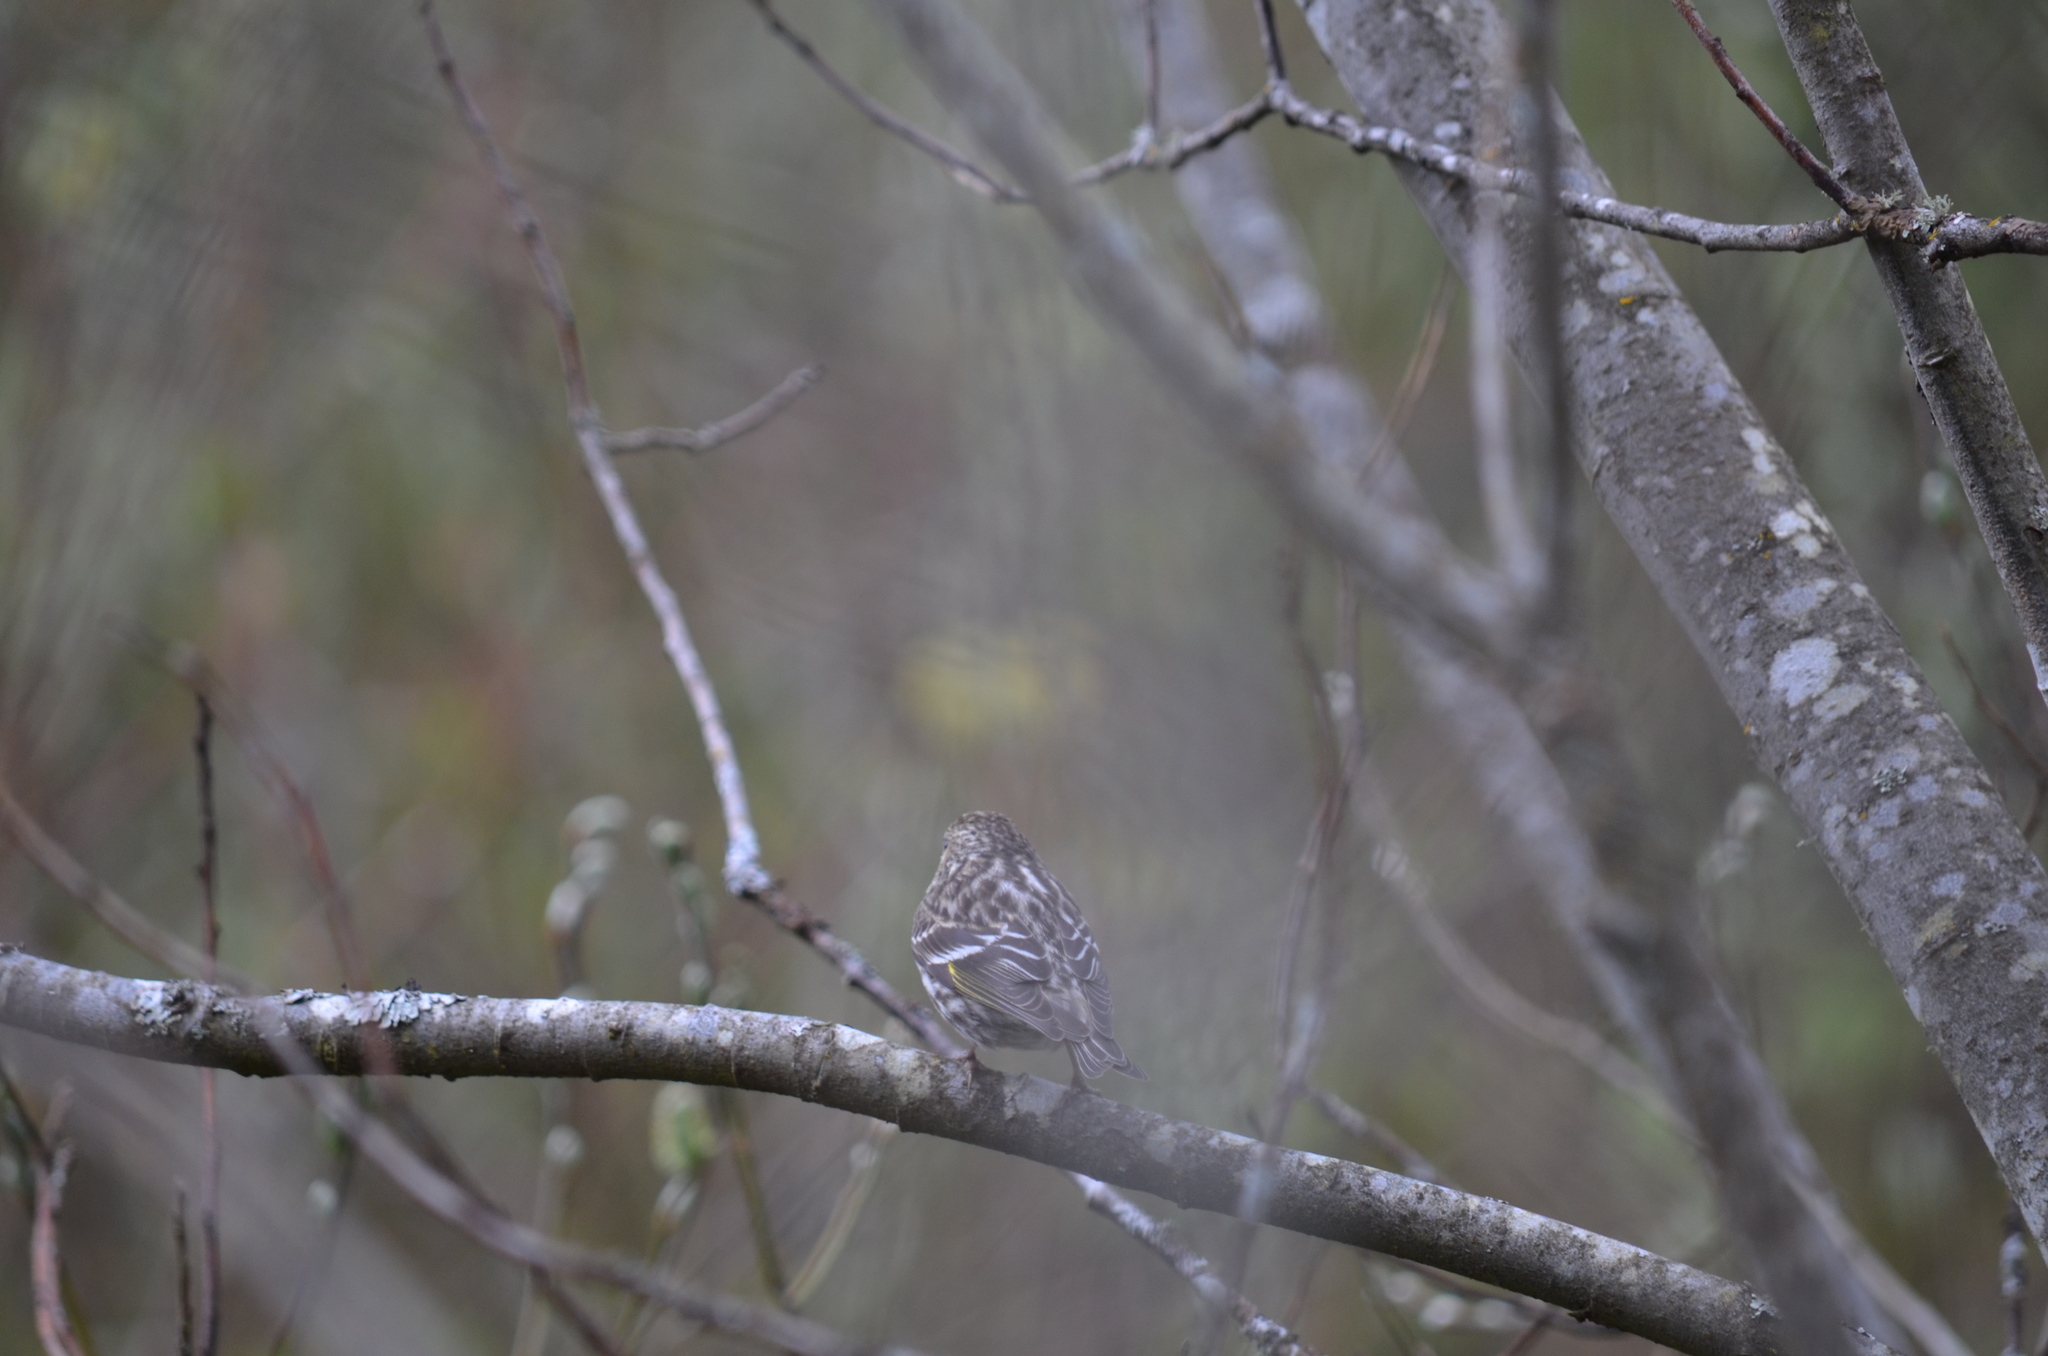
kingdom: Animalia
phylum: Chordata
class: Aves
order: Passeriformes
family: Fringillidae
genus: Spinus
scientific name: Spinus pinus
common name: Pine siskin
